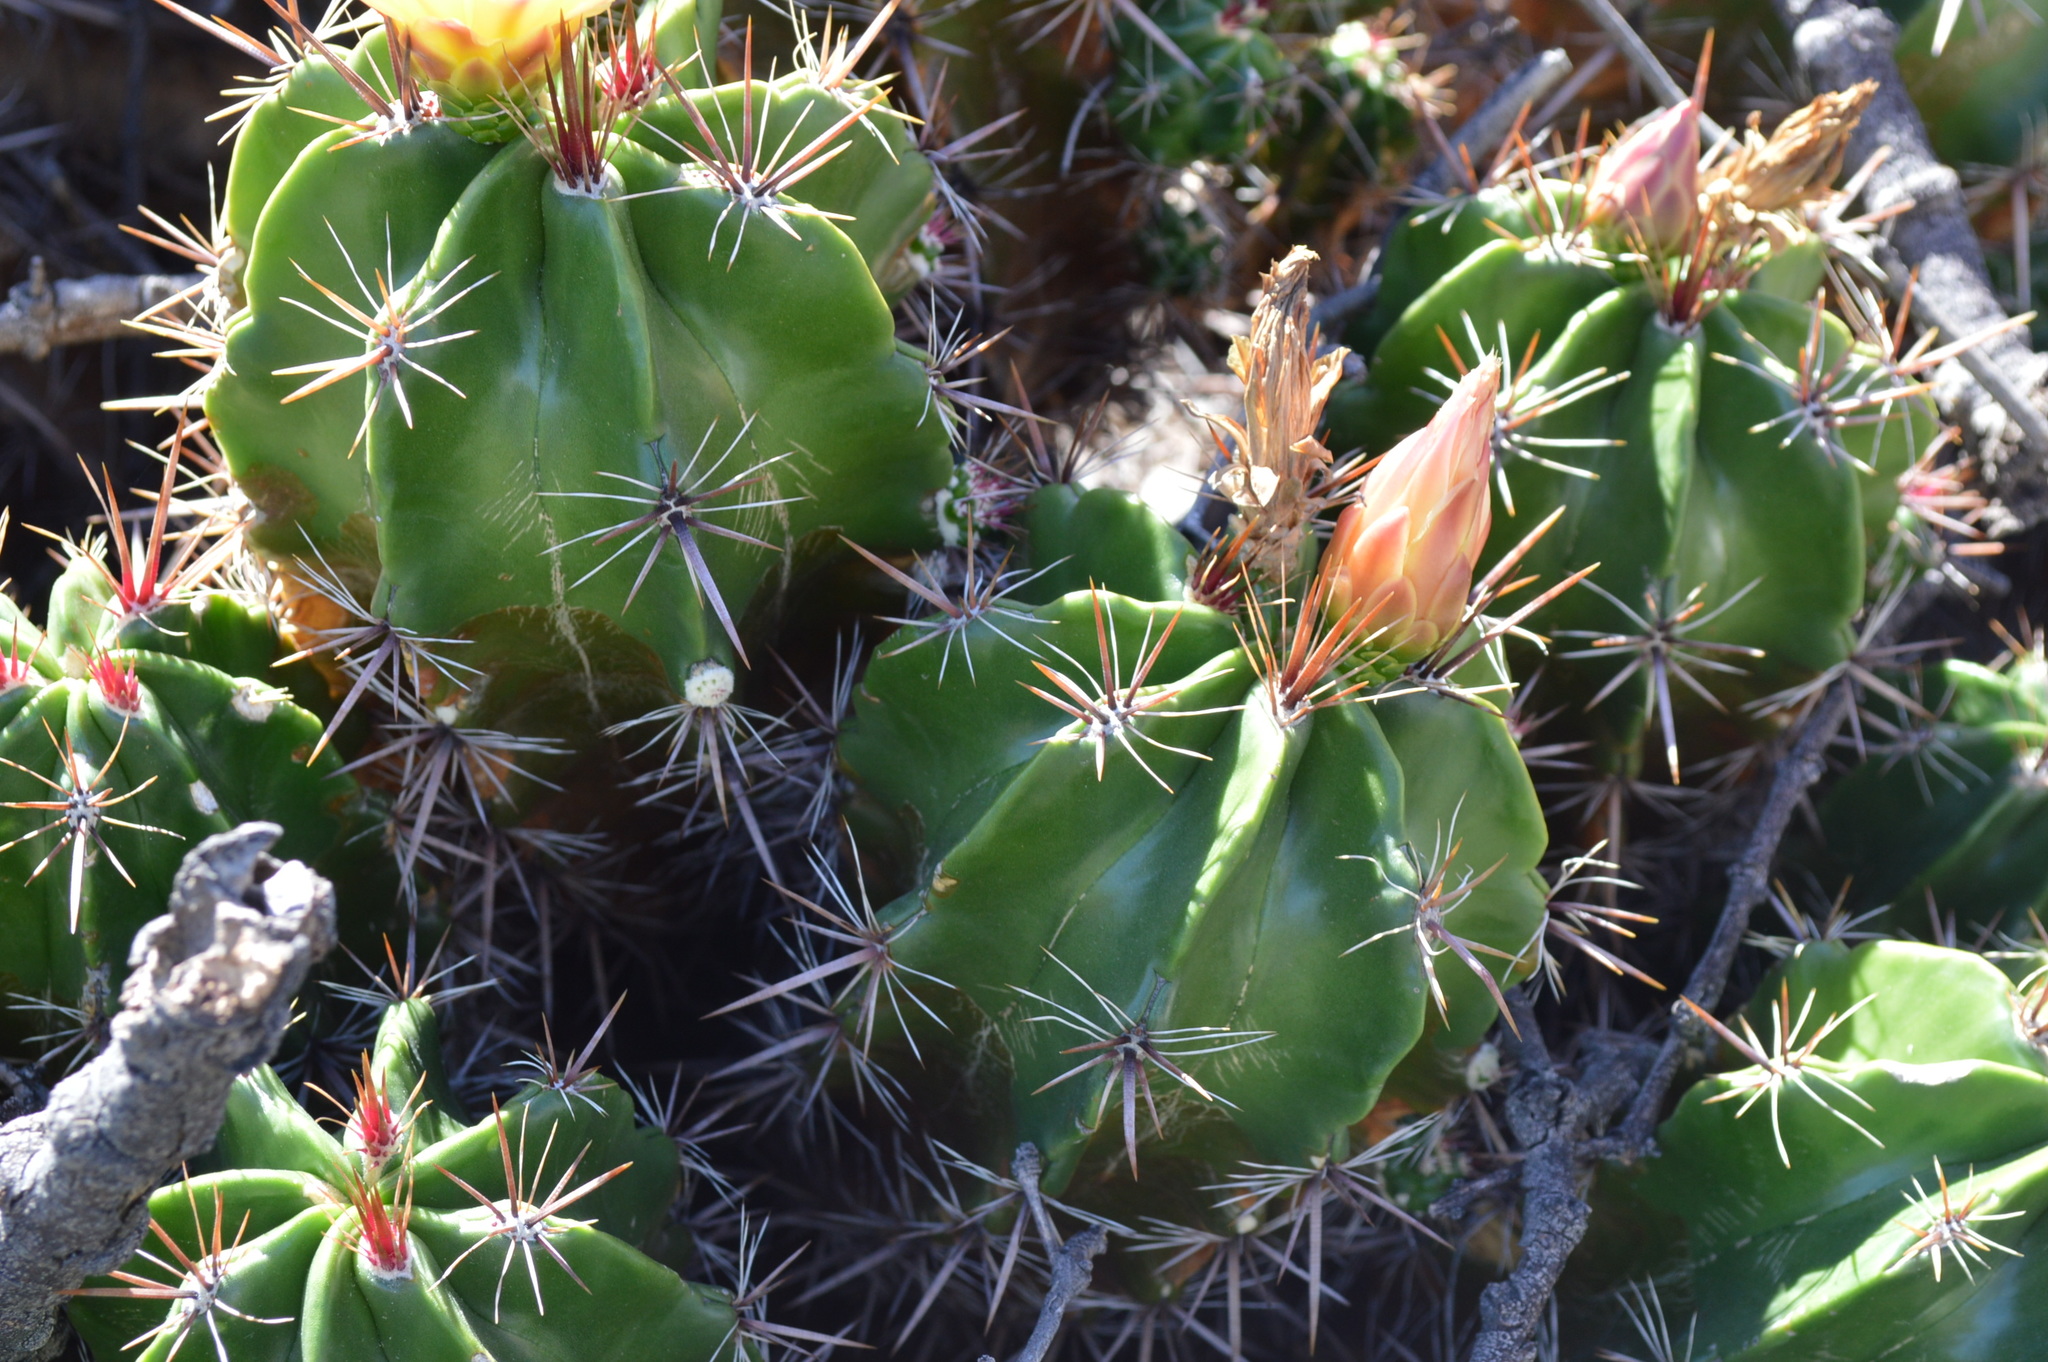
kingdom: Plantae
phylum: Tracheophyta
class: Magnoliopsida
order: Caryophyllales
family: Cactaceae
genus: Ferocactus
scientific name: Ferocactus robustus
